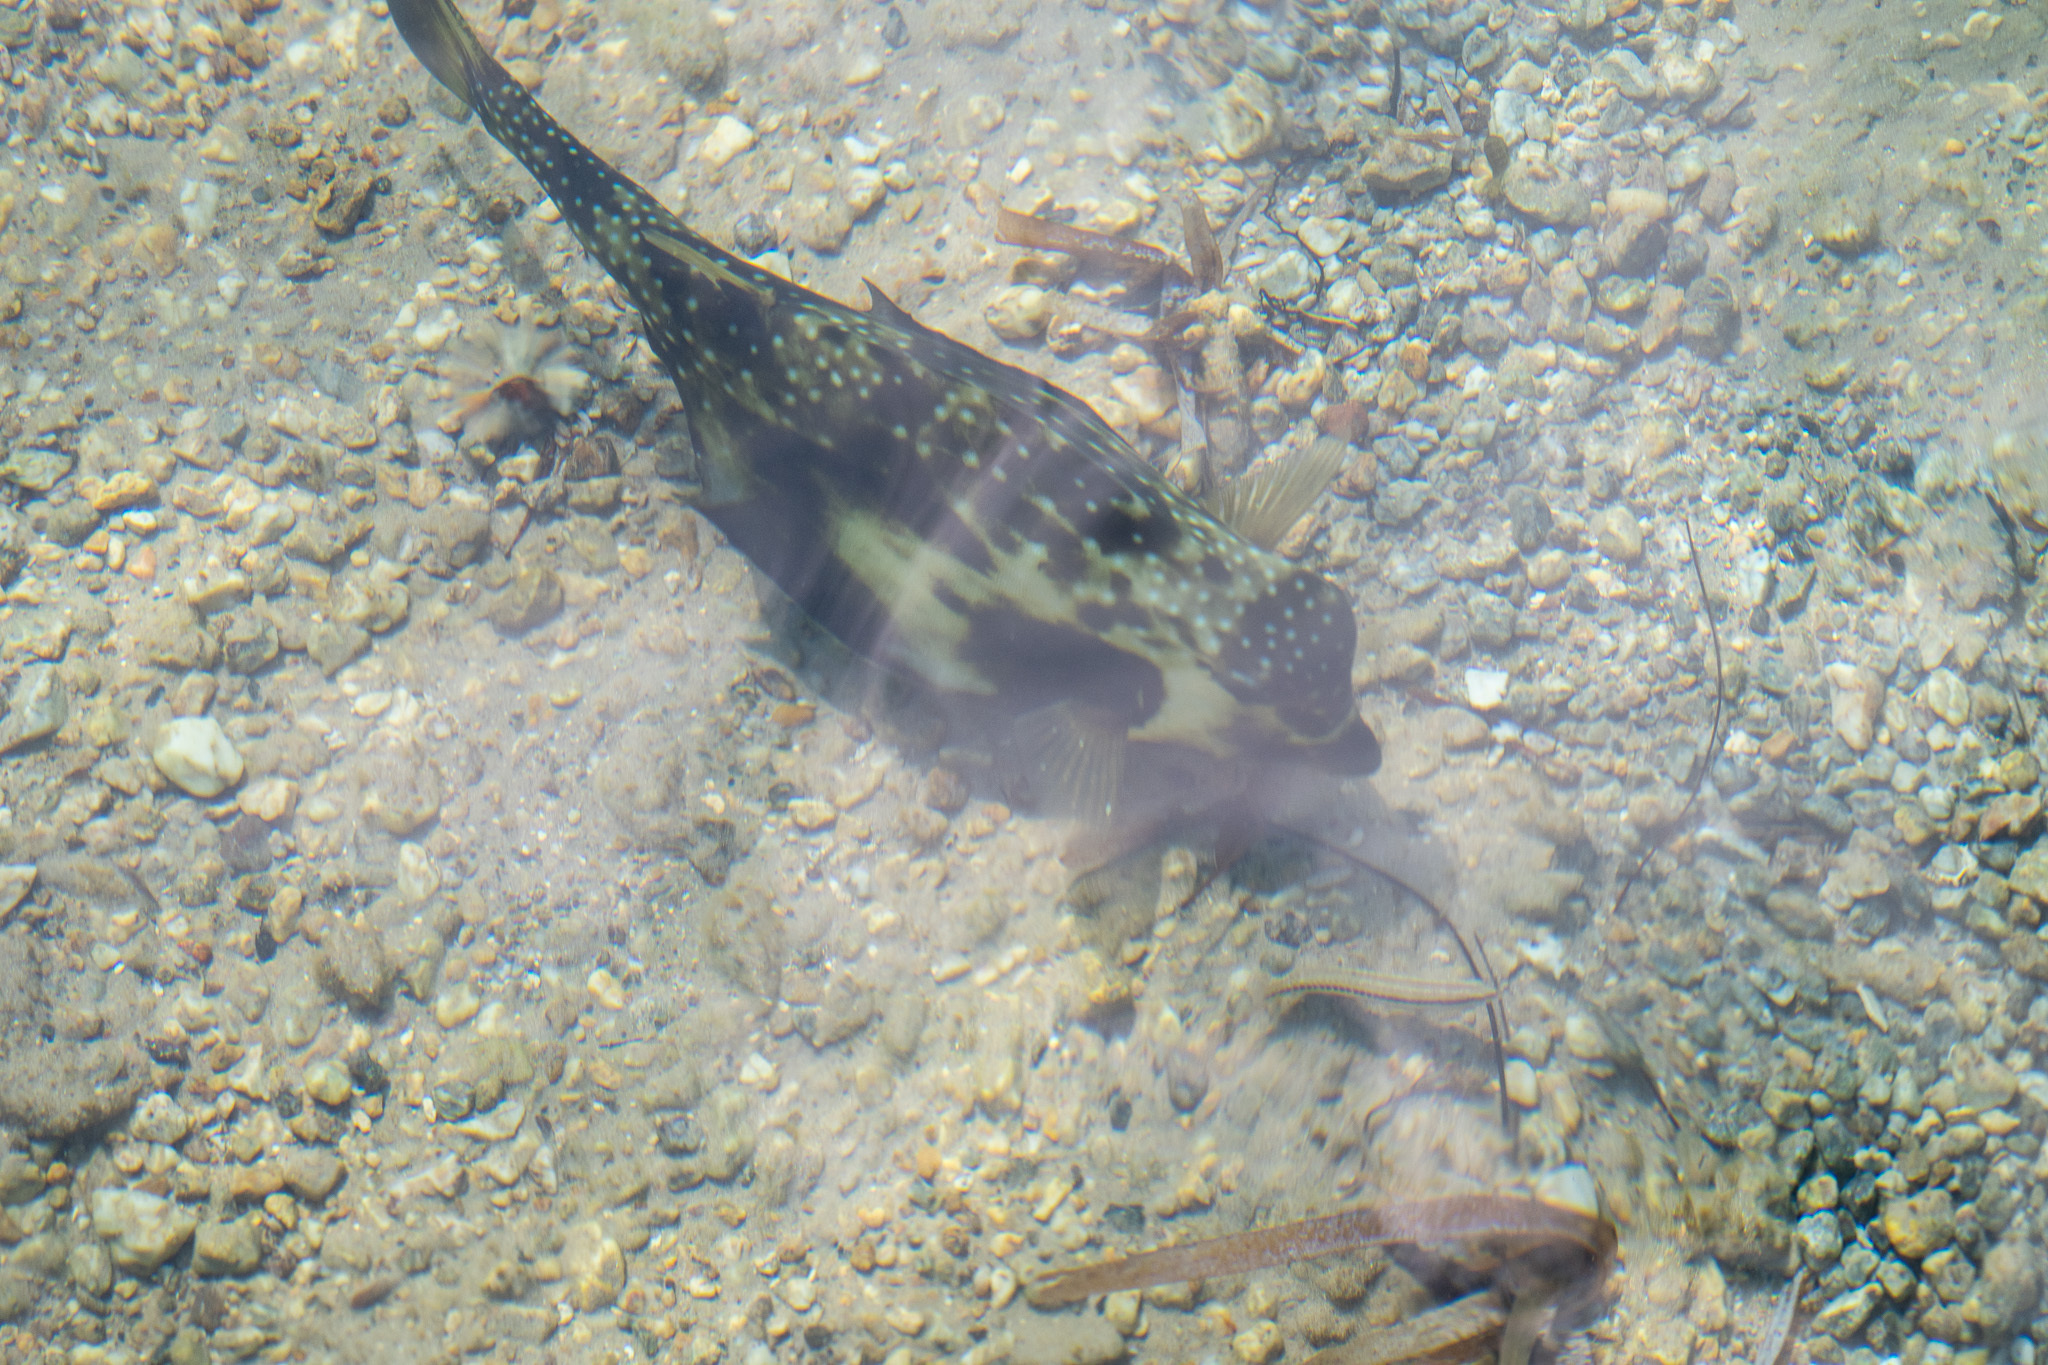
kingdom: Animalia
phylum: Chordata
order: Tetraodontiformes
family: Ostraciidae
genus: Lactophrys
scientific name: Lactophrys trigonus
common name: Buffalo trunkfish
